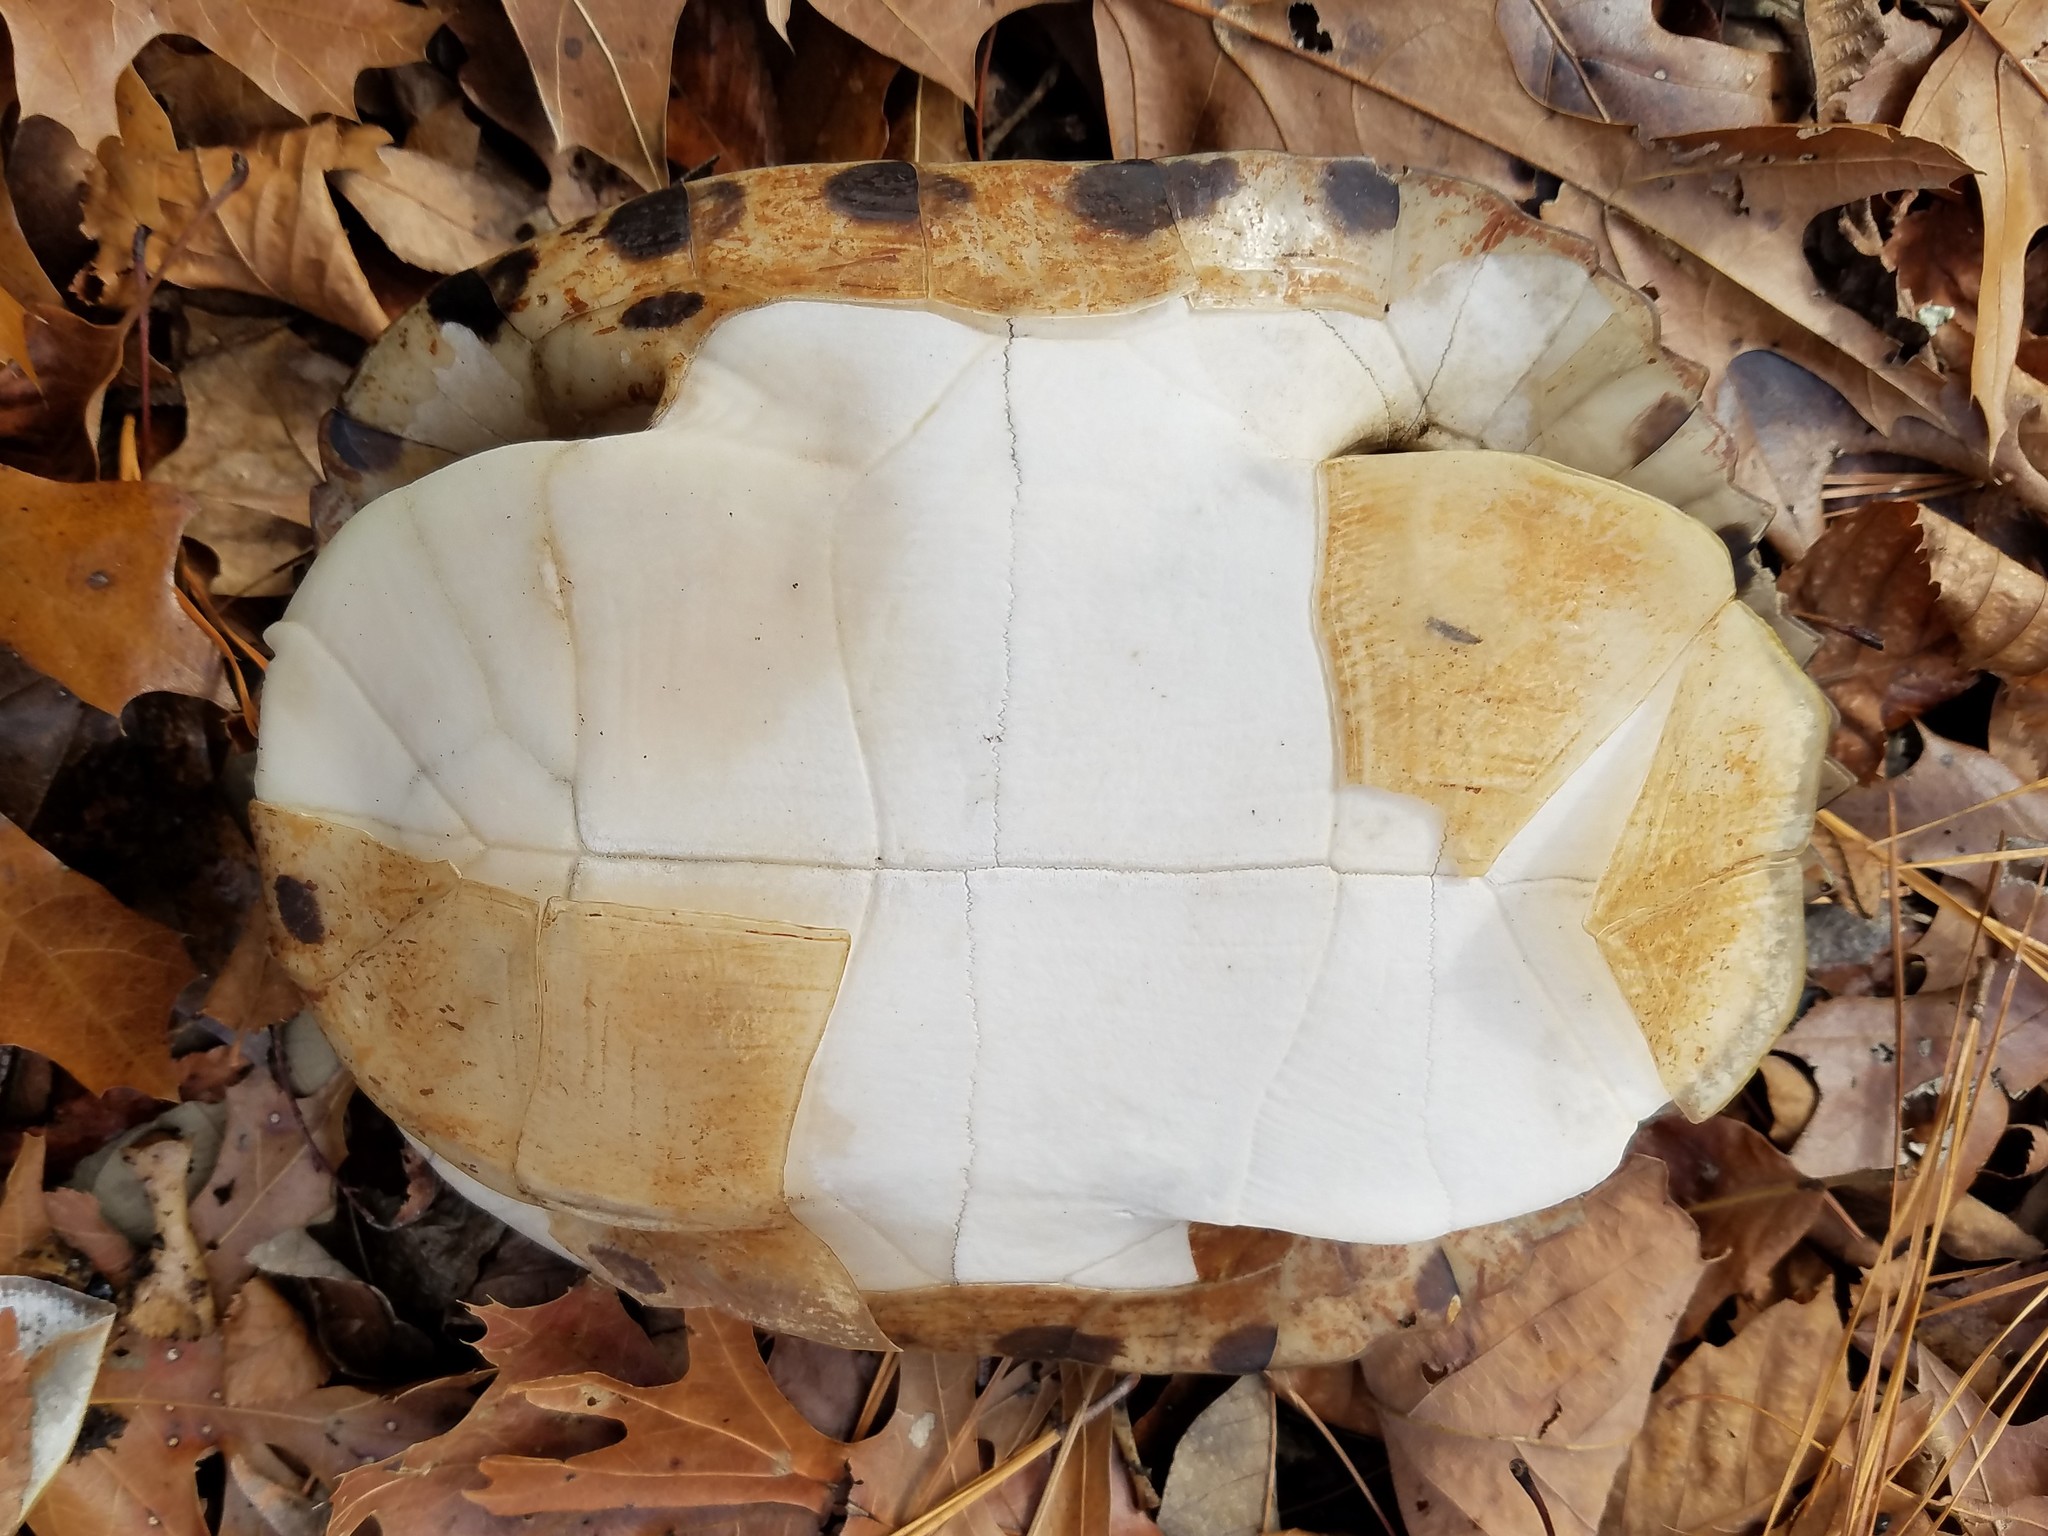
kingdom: Animalia
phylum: Chordata
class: Testudines
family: Emydidae
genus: Trachemys
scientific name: Trachemys scripta
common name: Slider
